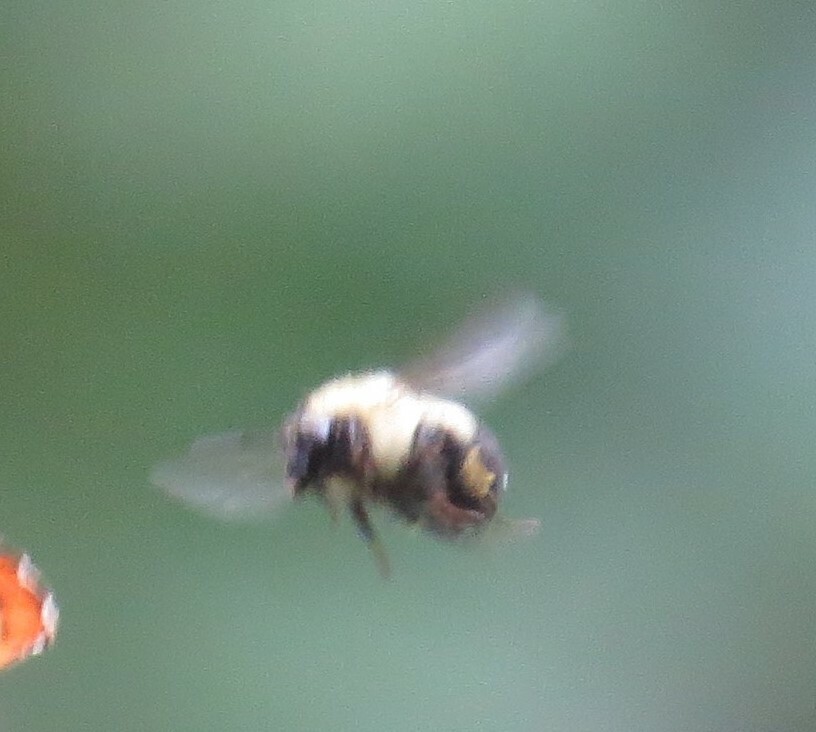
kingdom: Animalia
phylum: Arthropoda
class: Insecta
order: Hymenoptera
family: Apidae
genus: Bombus
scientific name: Bombus
